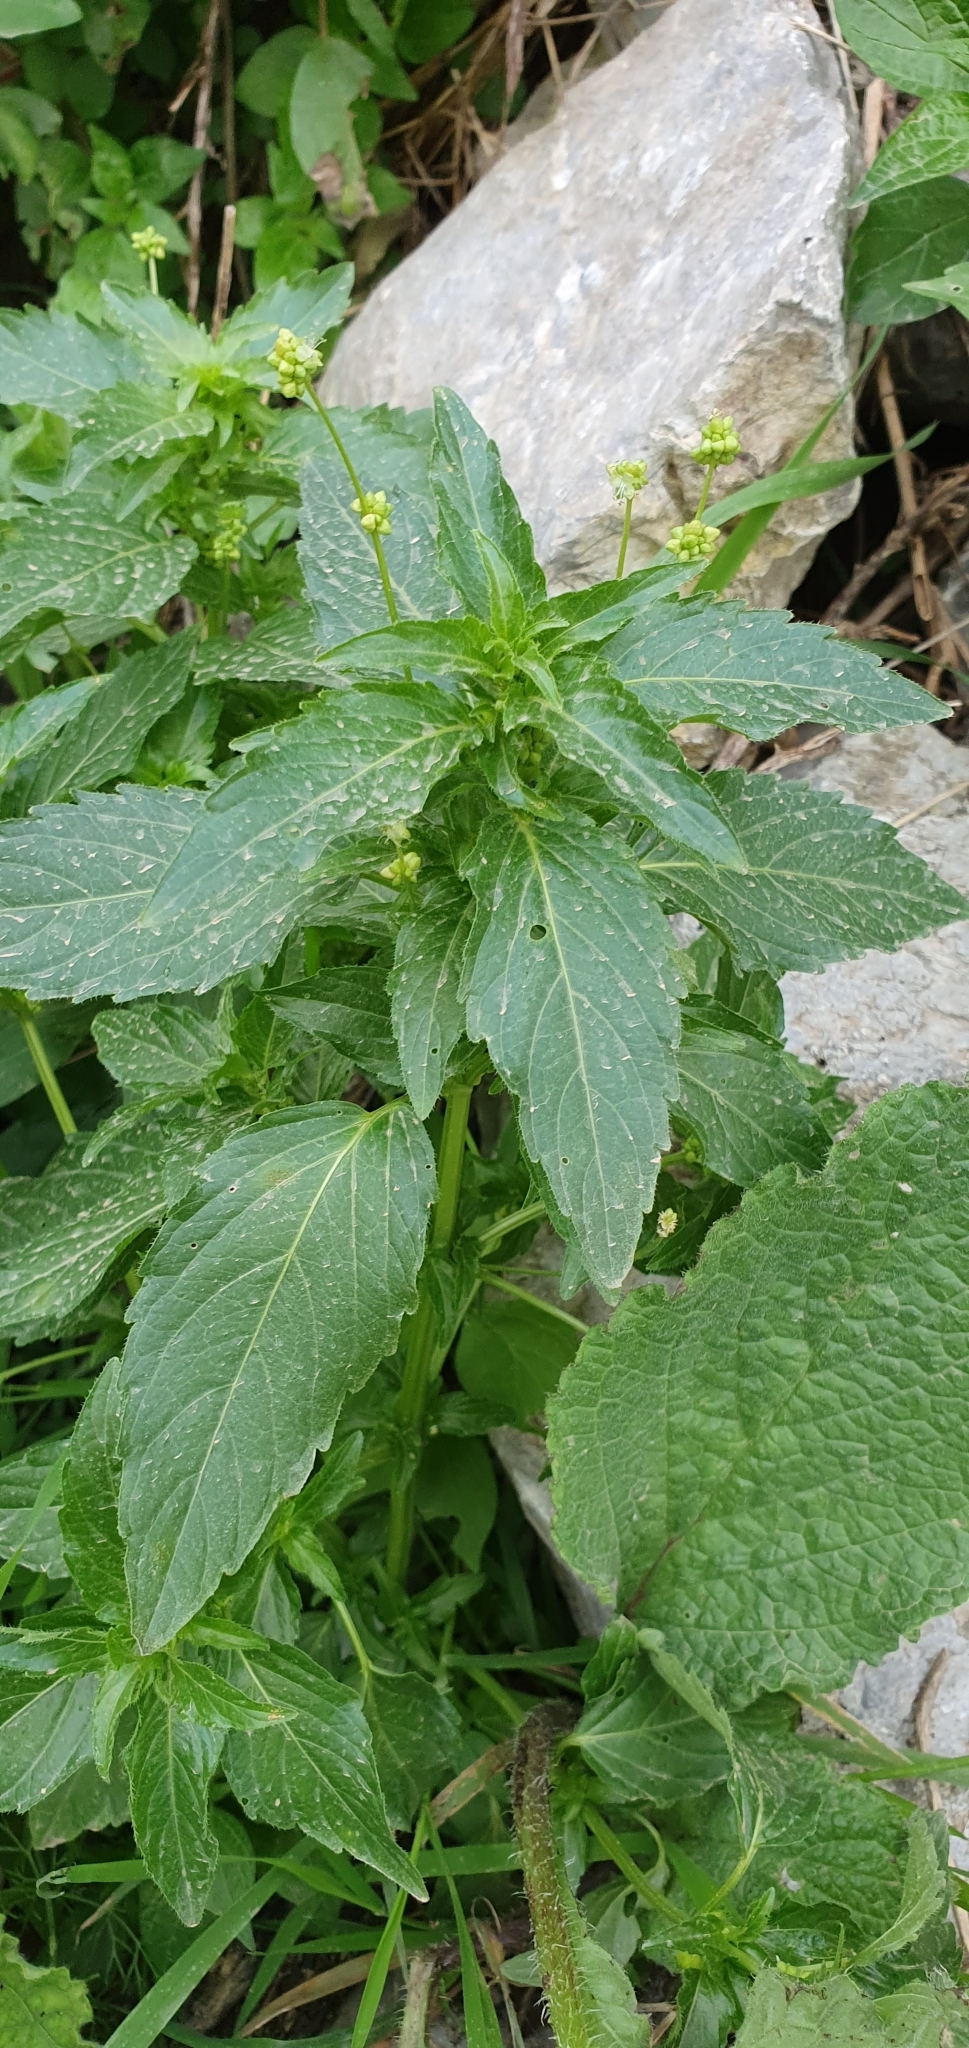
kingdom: Plantae
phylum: Tracheophyta
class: Magnoliopsida
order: Malpighiales
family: Euphorbiaceae
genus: Mercurialis
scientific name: Mercurialis annua
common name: Annual mercury
